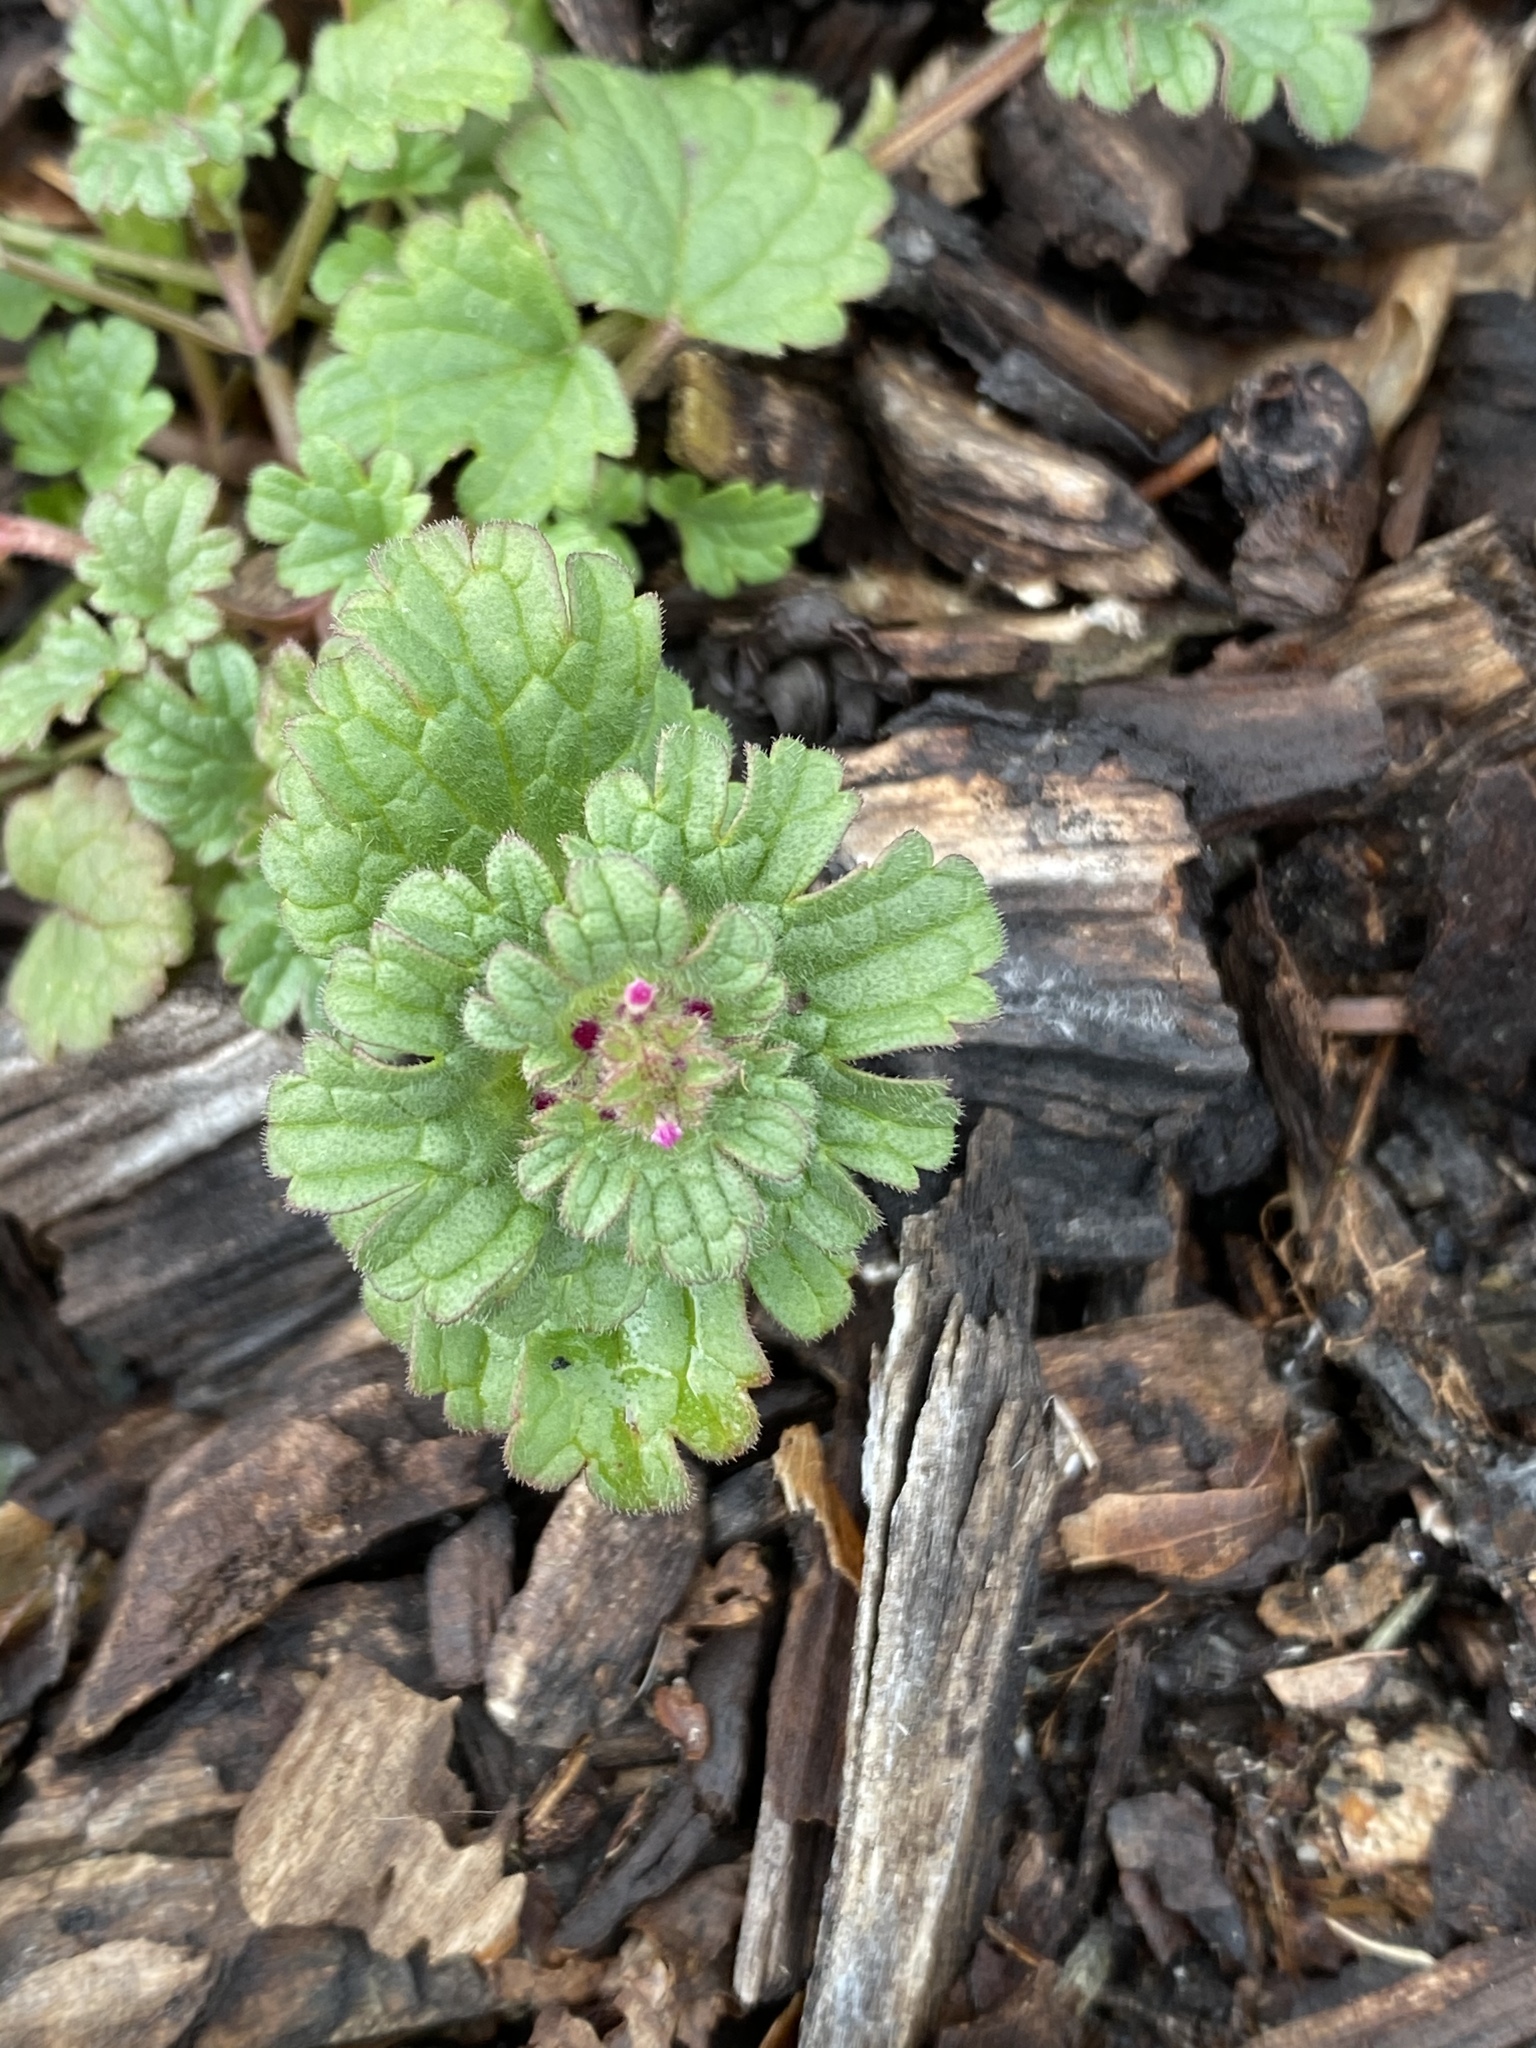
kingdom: Plantae
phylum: Tracheophyta
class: Magnoliopsida
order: Lamiales
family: Lamiaceae
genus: Lamium
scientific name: Lamium amplexicaule
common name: Henbit dead-nettle
